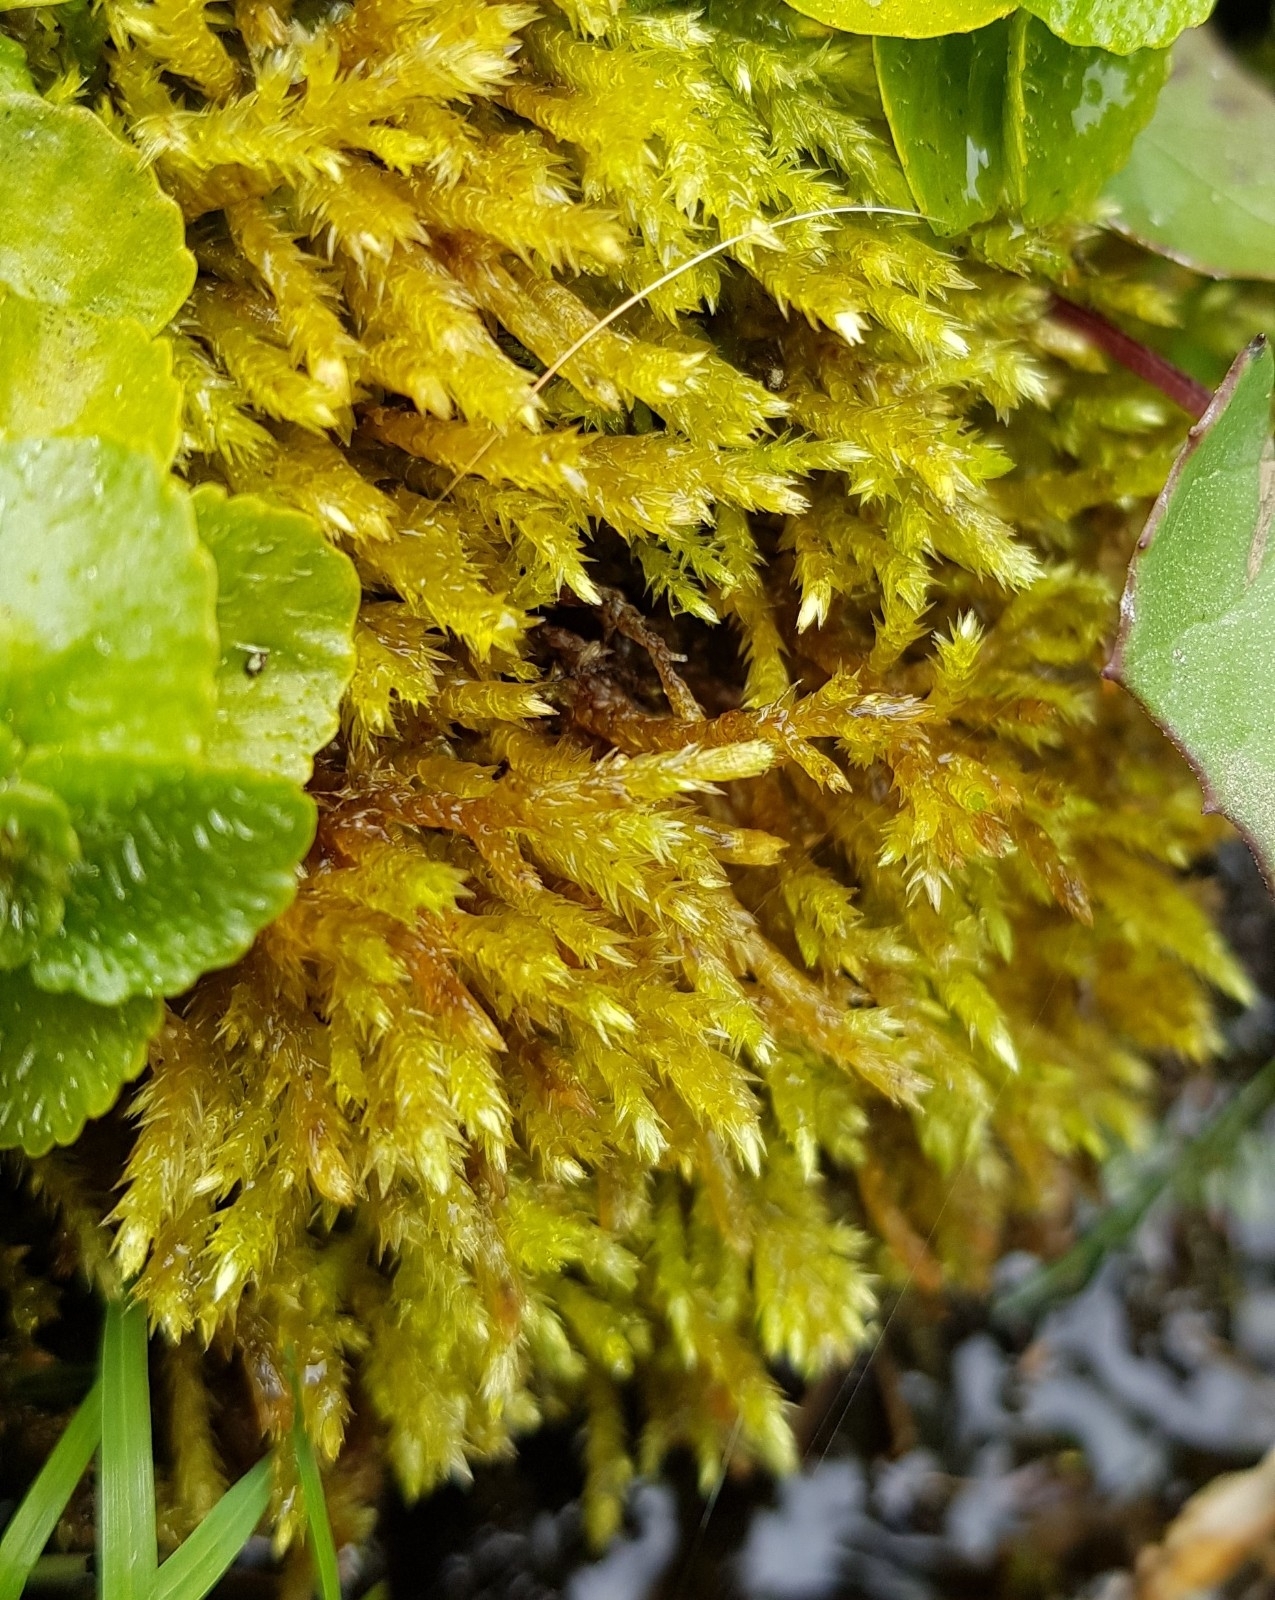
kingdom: Plantae
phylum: Bryophyta
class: Bryopsida
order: Hypnales
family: Brachytheciaceae
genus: Brachythecium
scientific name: Brachythecium rivulare
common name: River ragged moss
